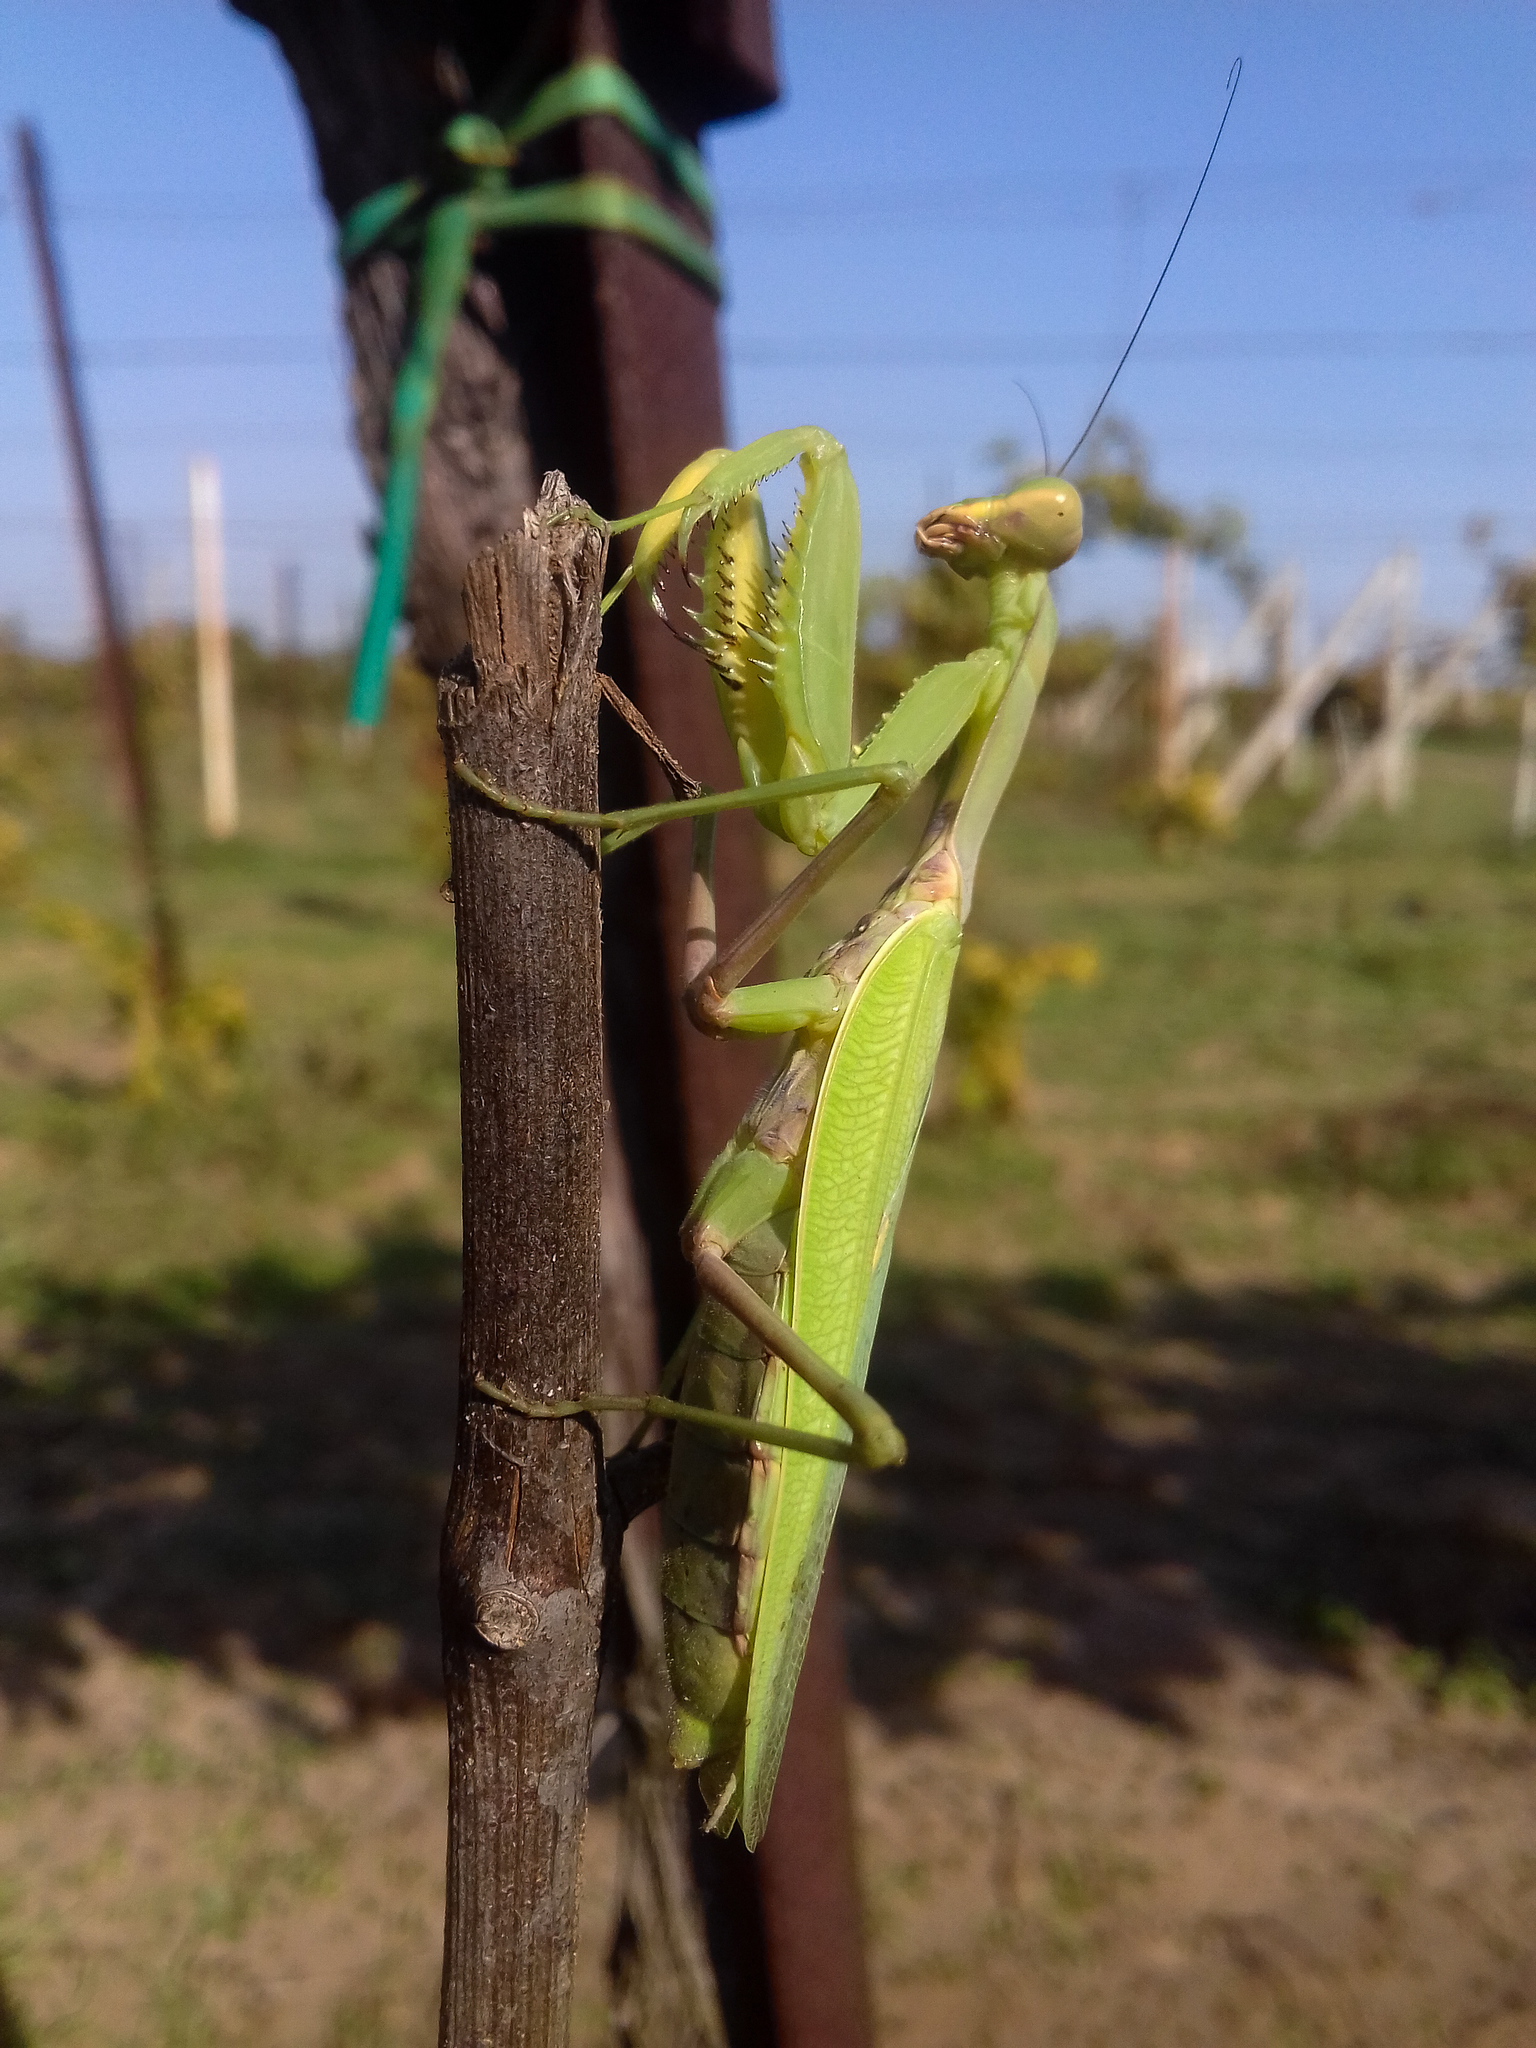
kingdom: Animalia
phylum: Arthropoda
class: Insecta
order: Mantodea
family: Mantidae
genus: Hierodula
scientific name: Hierodula transcaucasica
